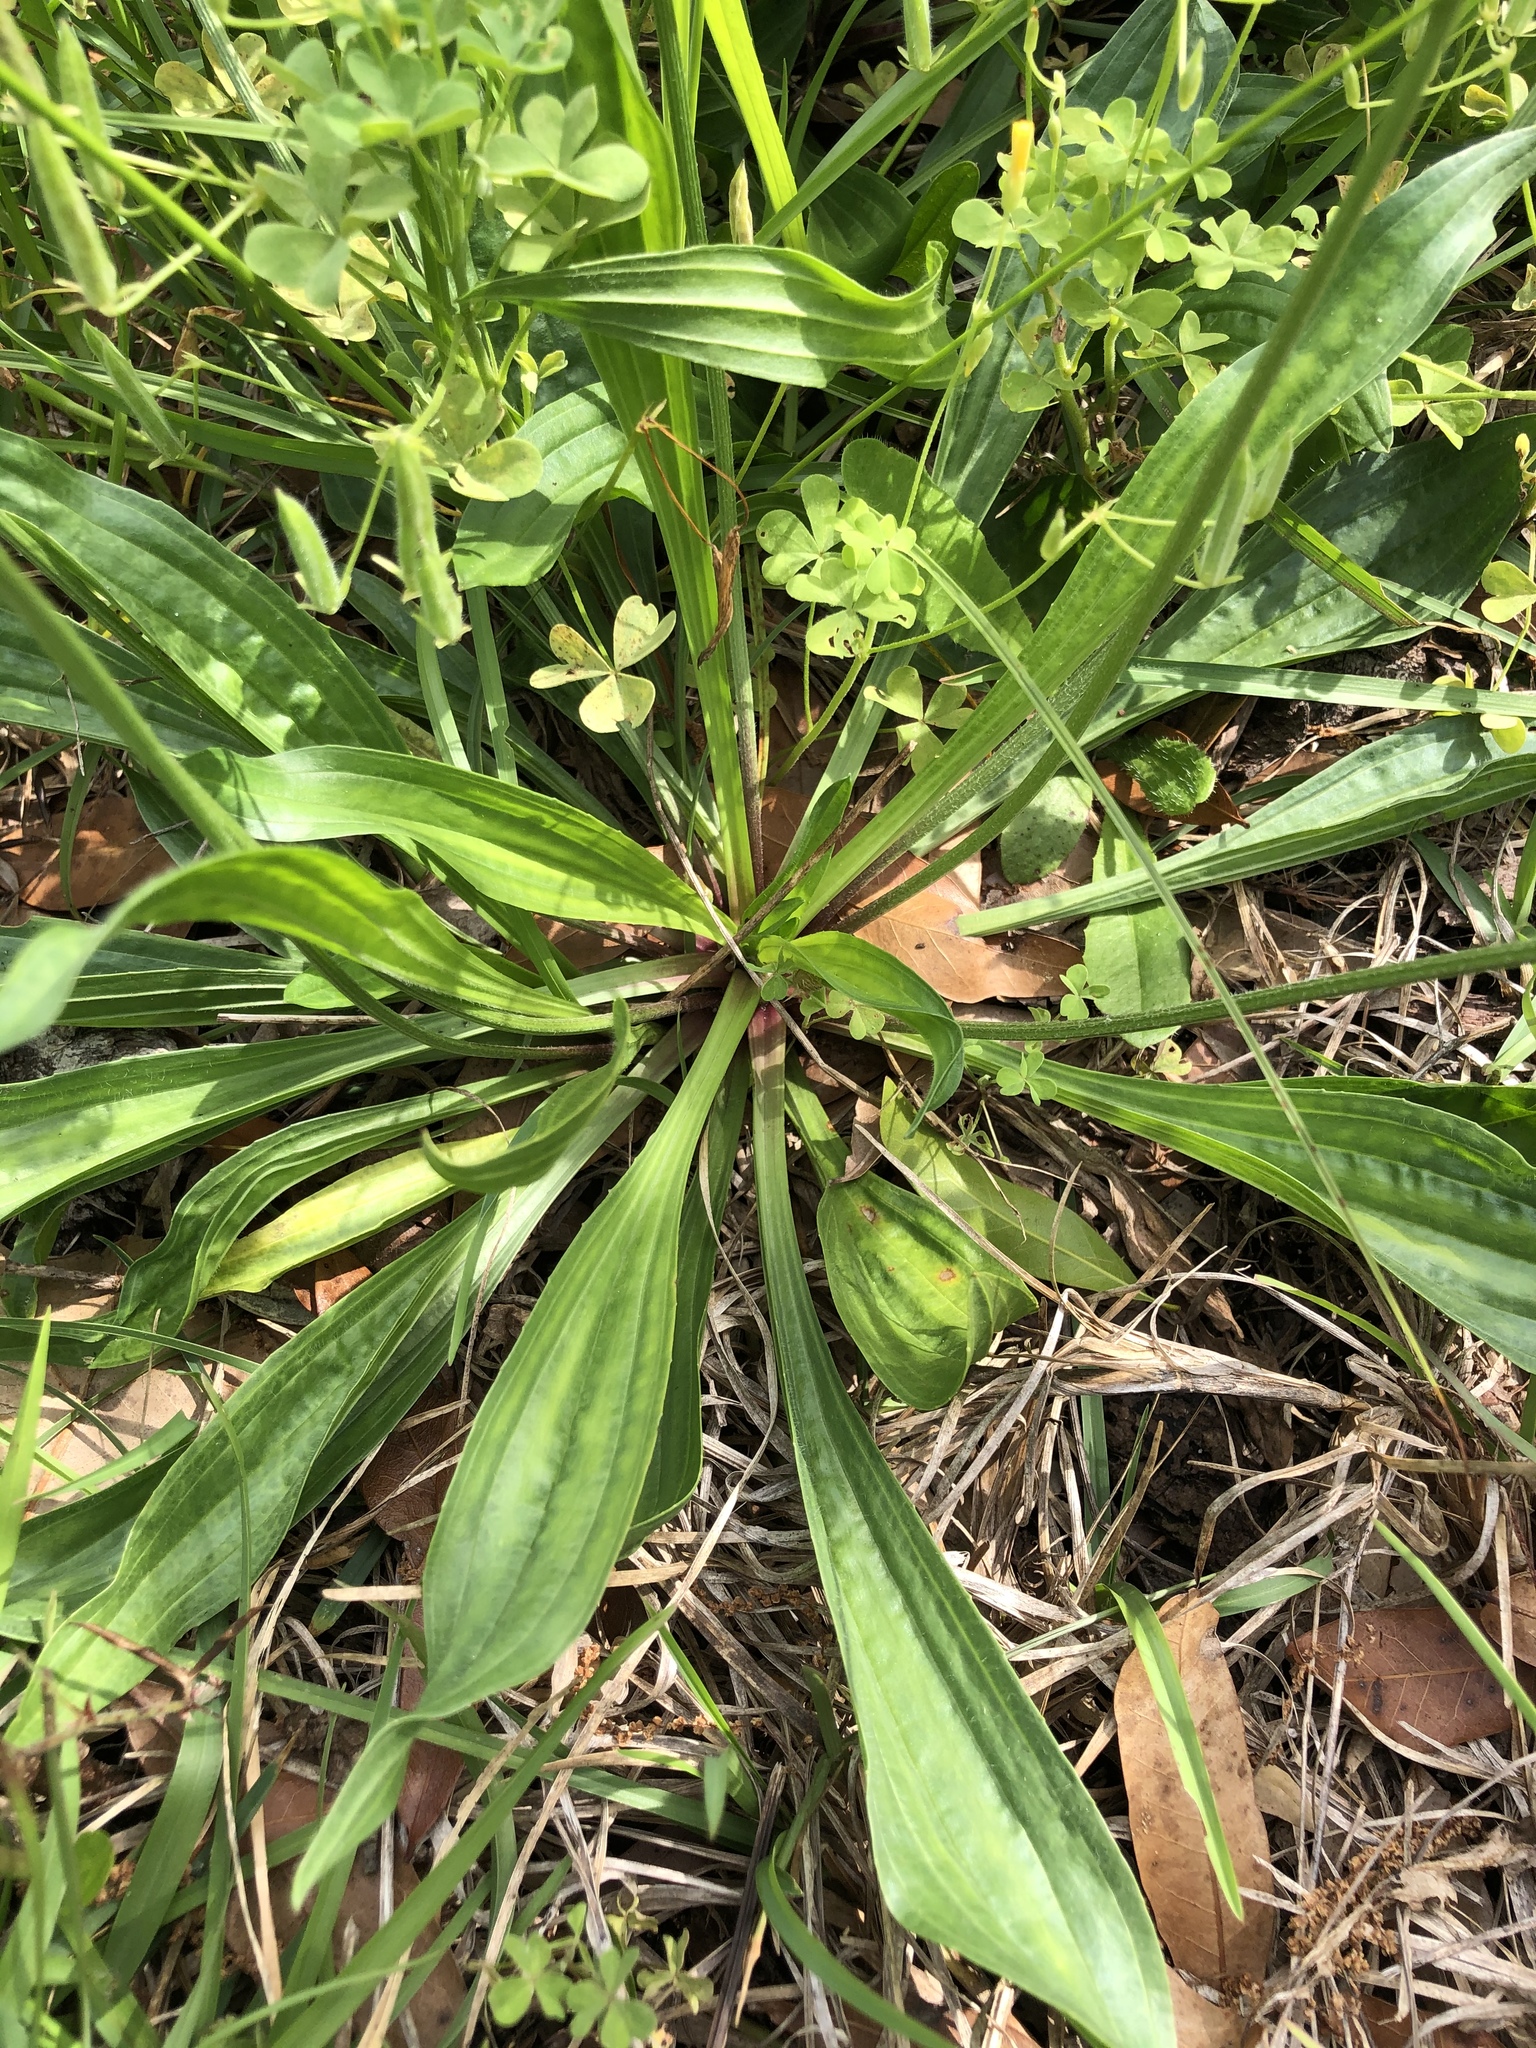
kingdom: Plantae
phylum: Tracheophyta
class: Magnoliopsida
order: Lamiales
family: Plantaginaceae
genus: Plantago
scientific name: Plantago lanceolata
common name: Ribwort plantain
